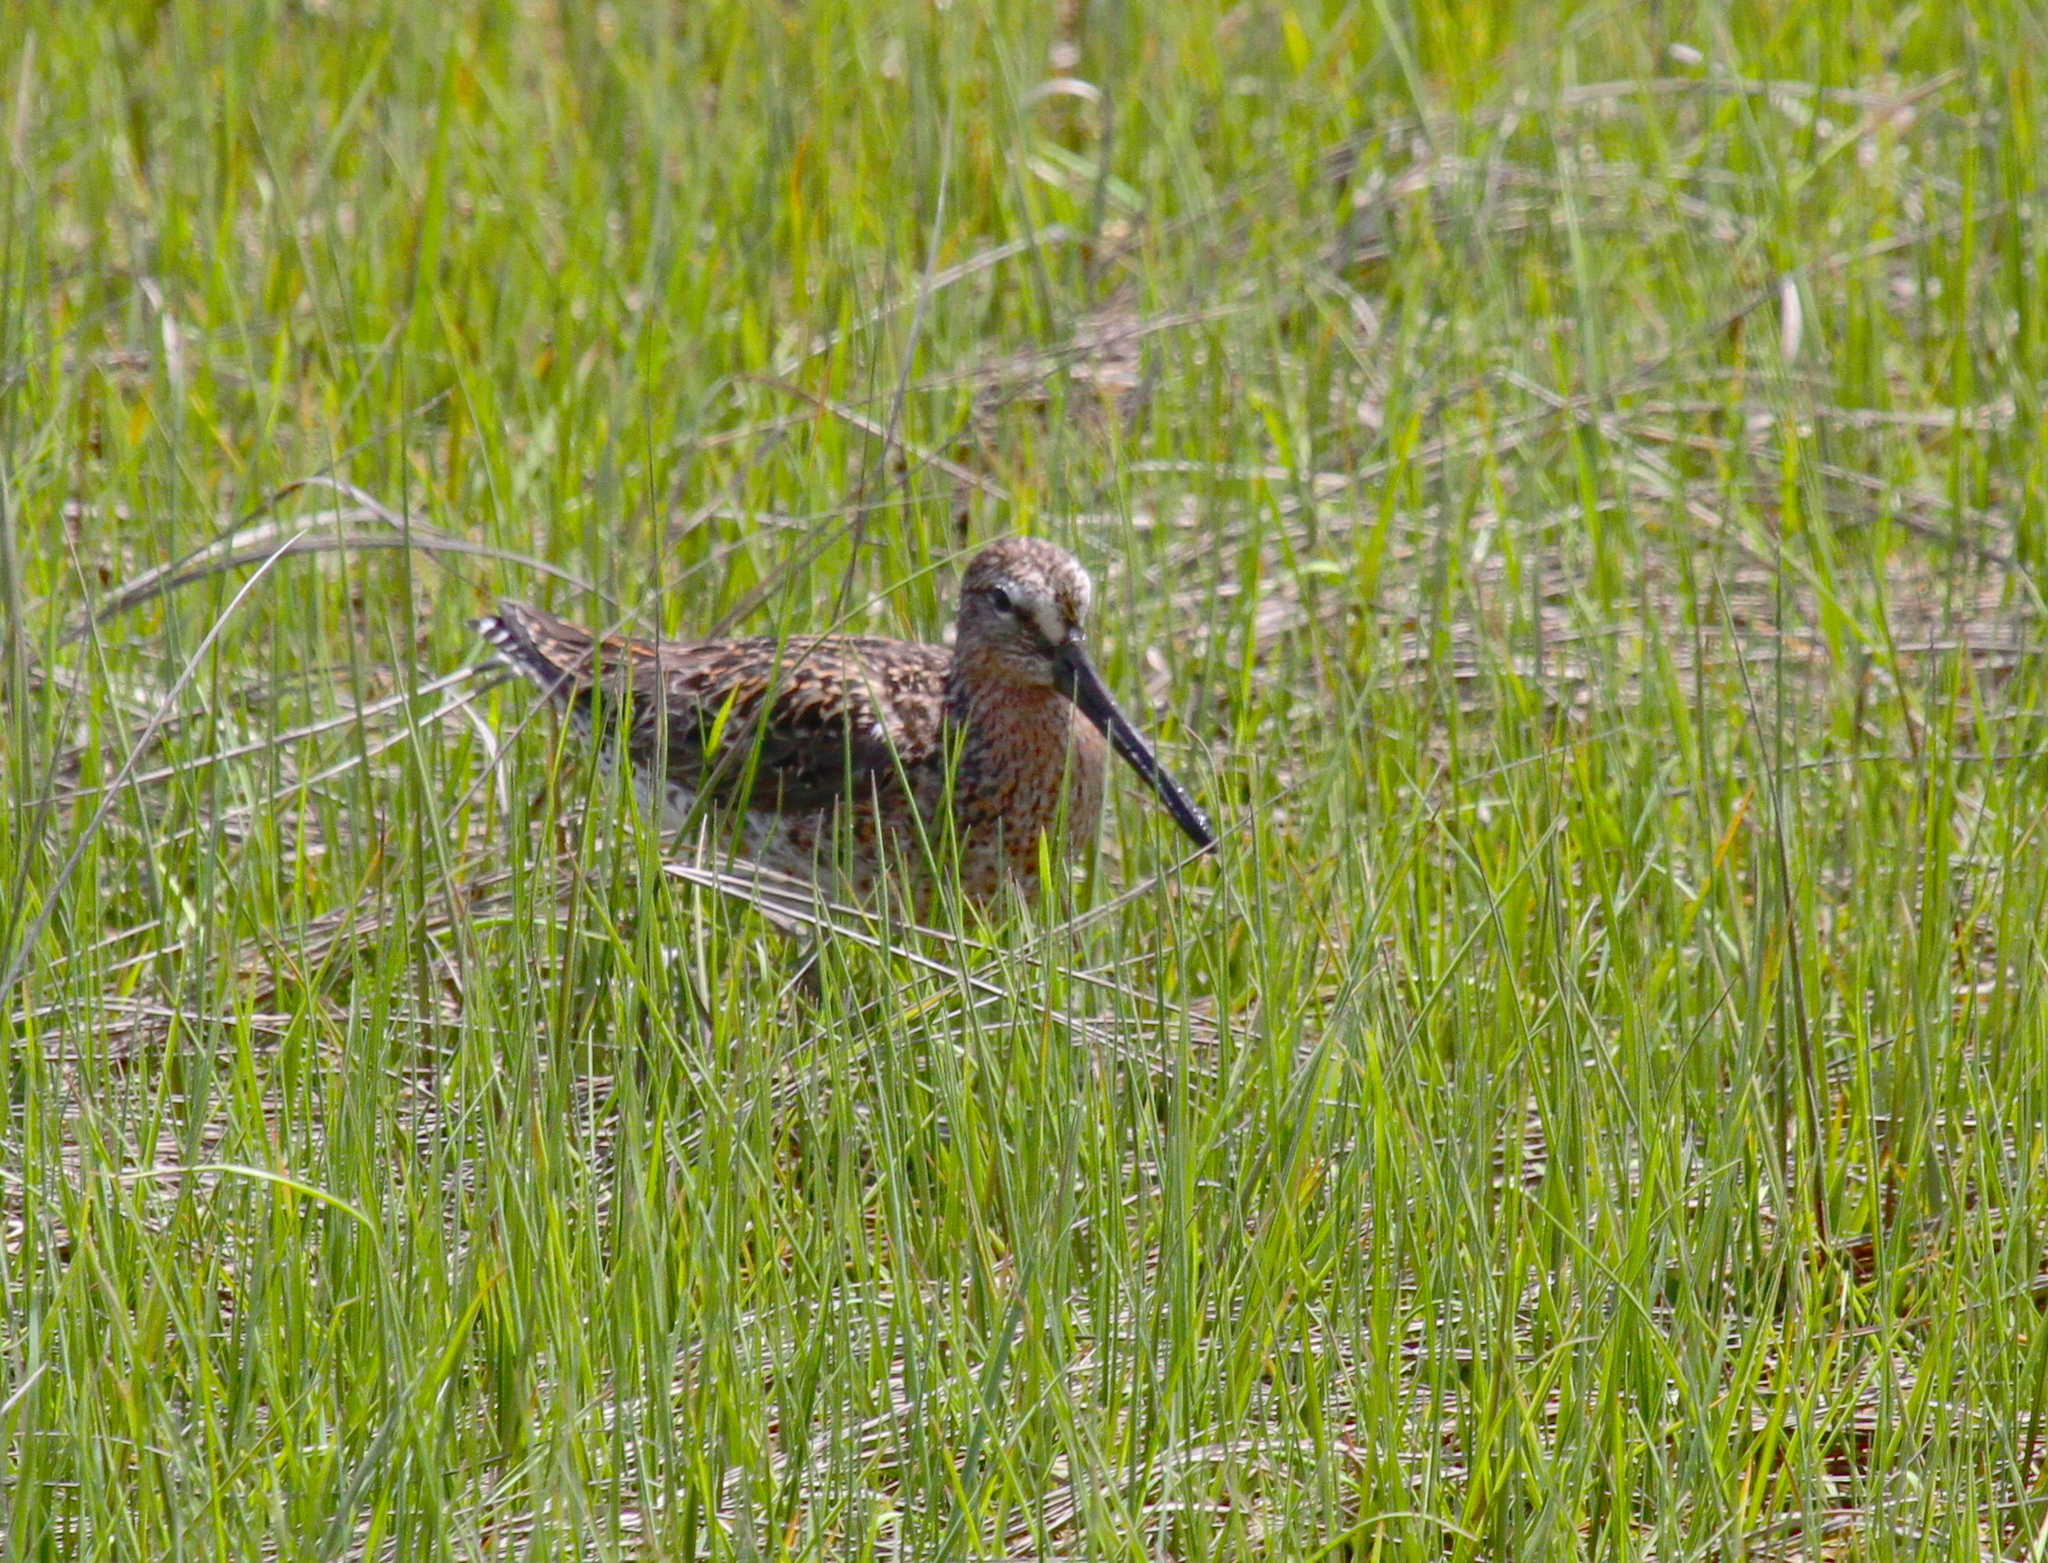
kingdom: Animalia
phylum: Chordata
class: Aves
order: Charadriiformes
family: Scolopacidae
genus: Limnodromus
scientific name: Limnodromus griseus
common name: Short-billed dowitcher
